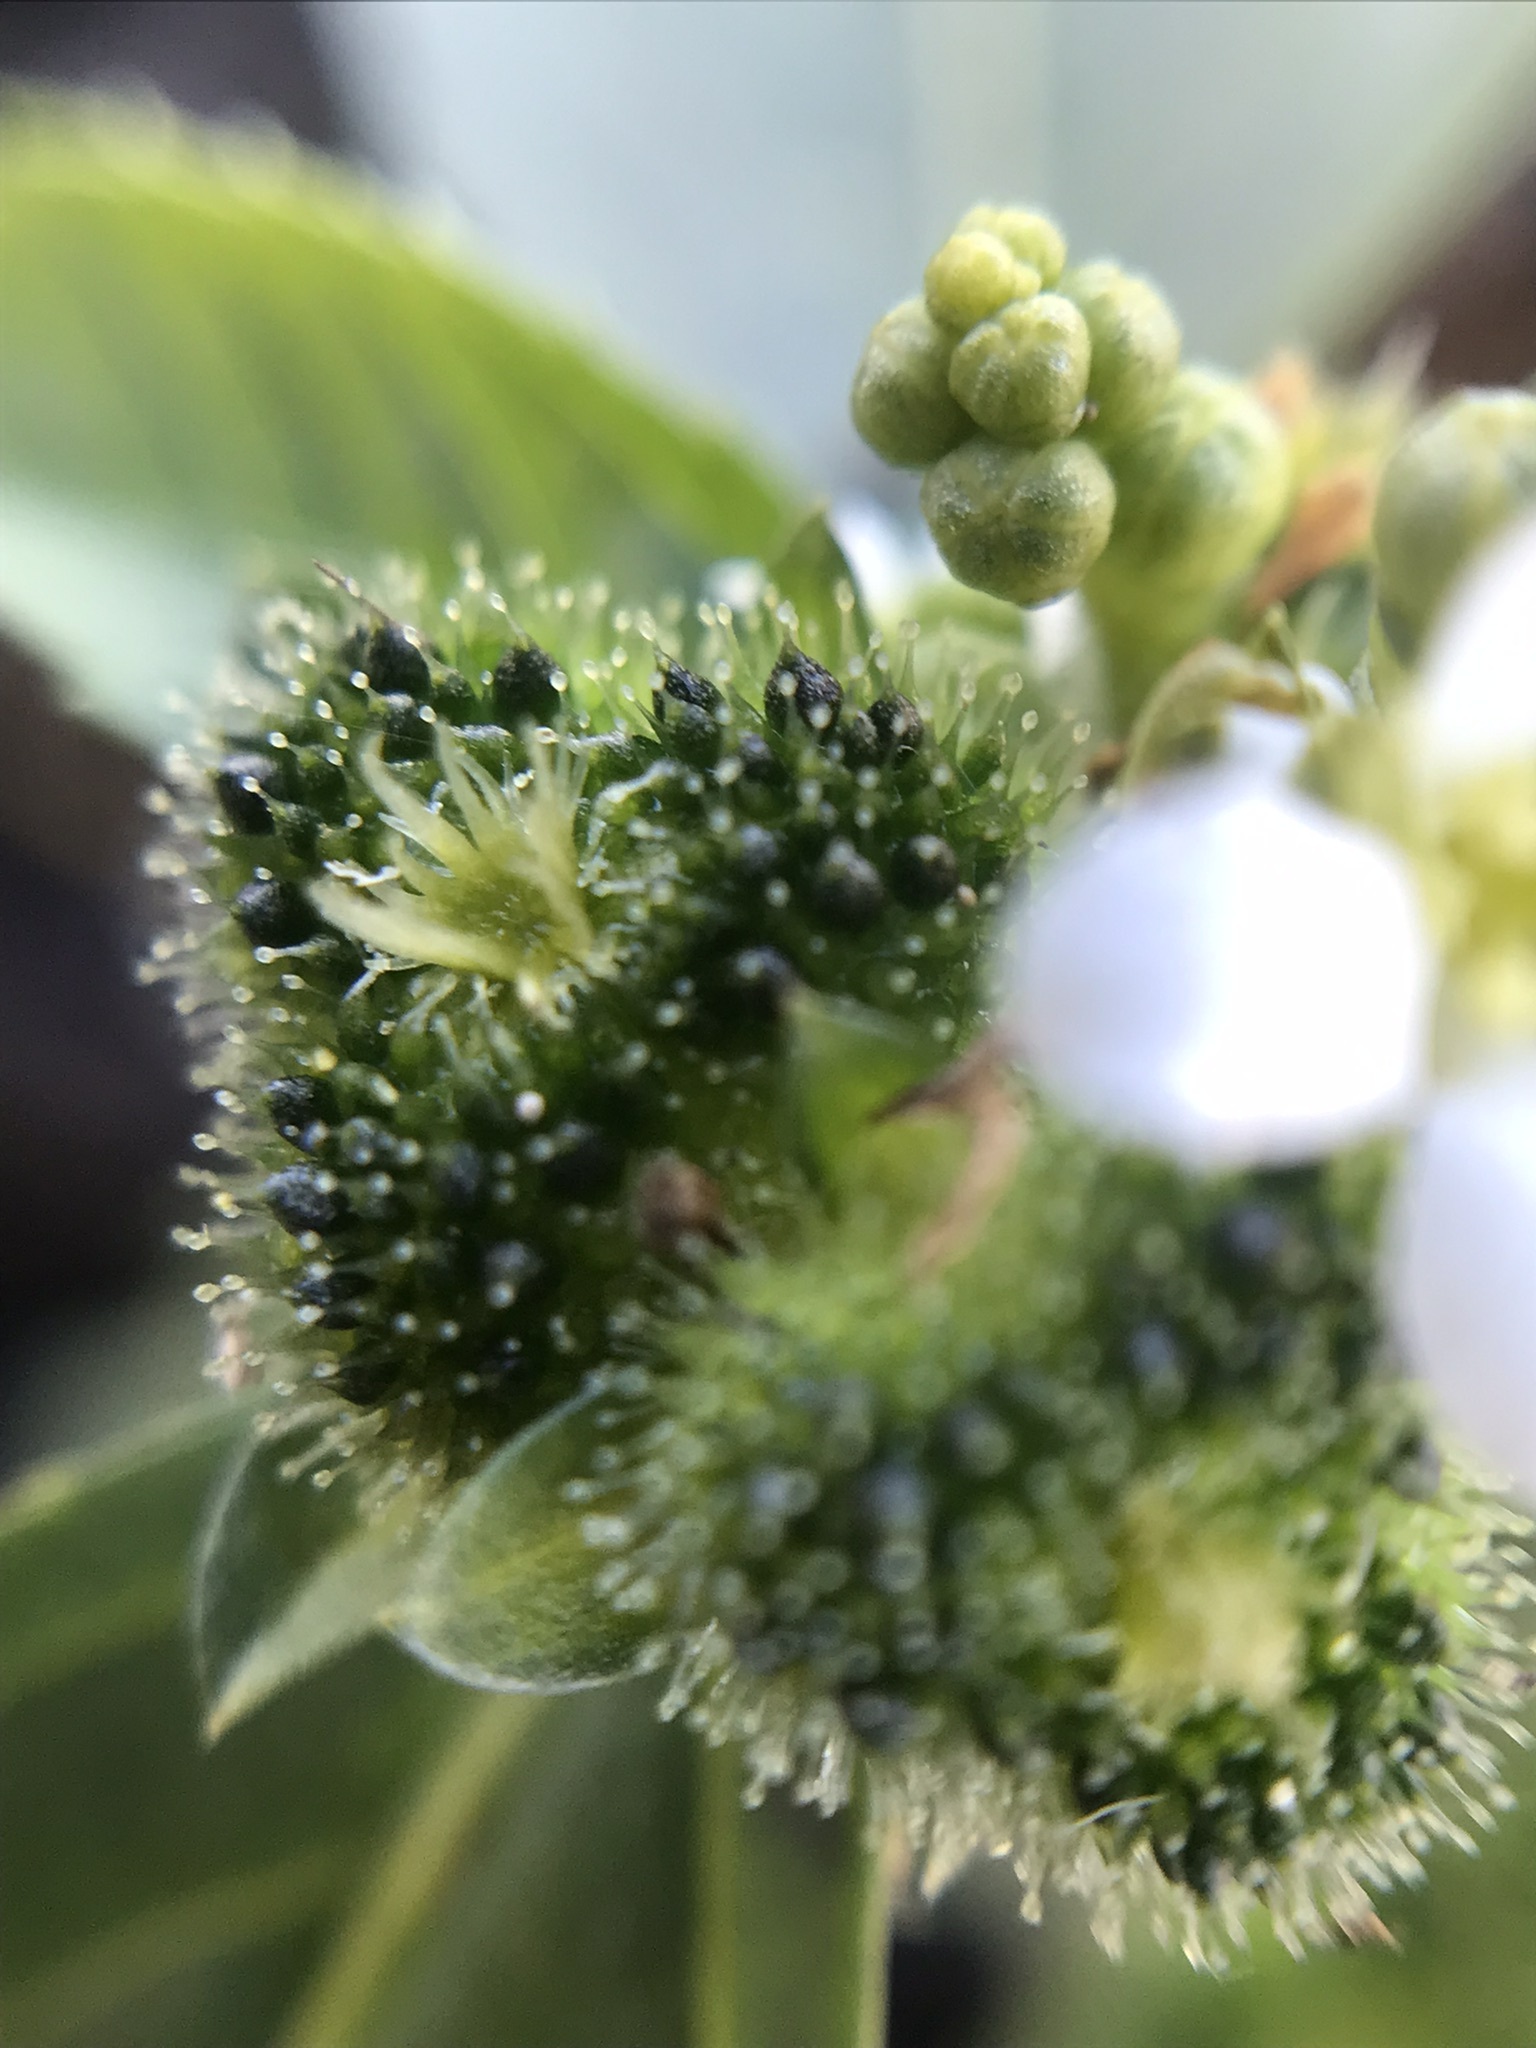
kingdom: Plantae
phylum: Tracheophyta
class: Magnoliopsida
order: Malpighiales
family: Euphorbiaceae
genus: Caperonia
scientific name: Caperonia castaneifolia
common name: Chestnutleaf false croton
